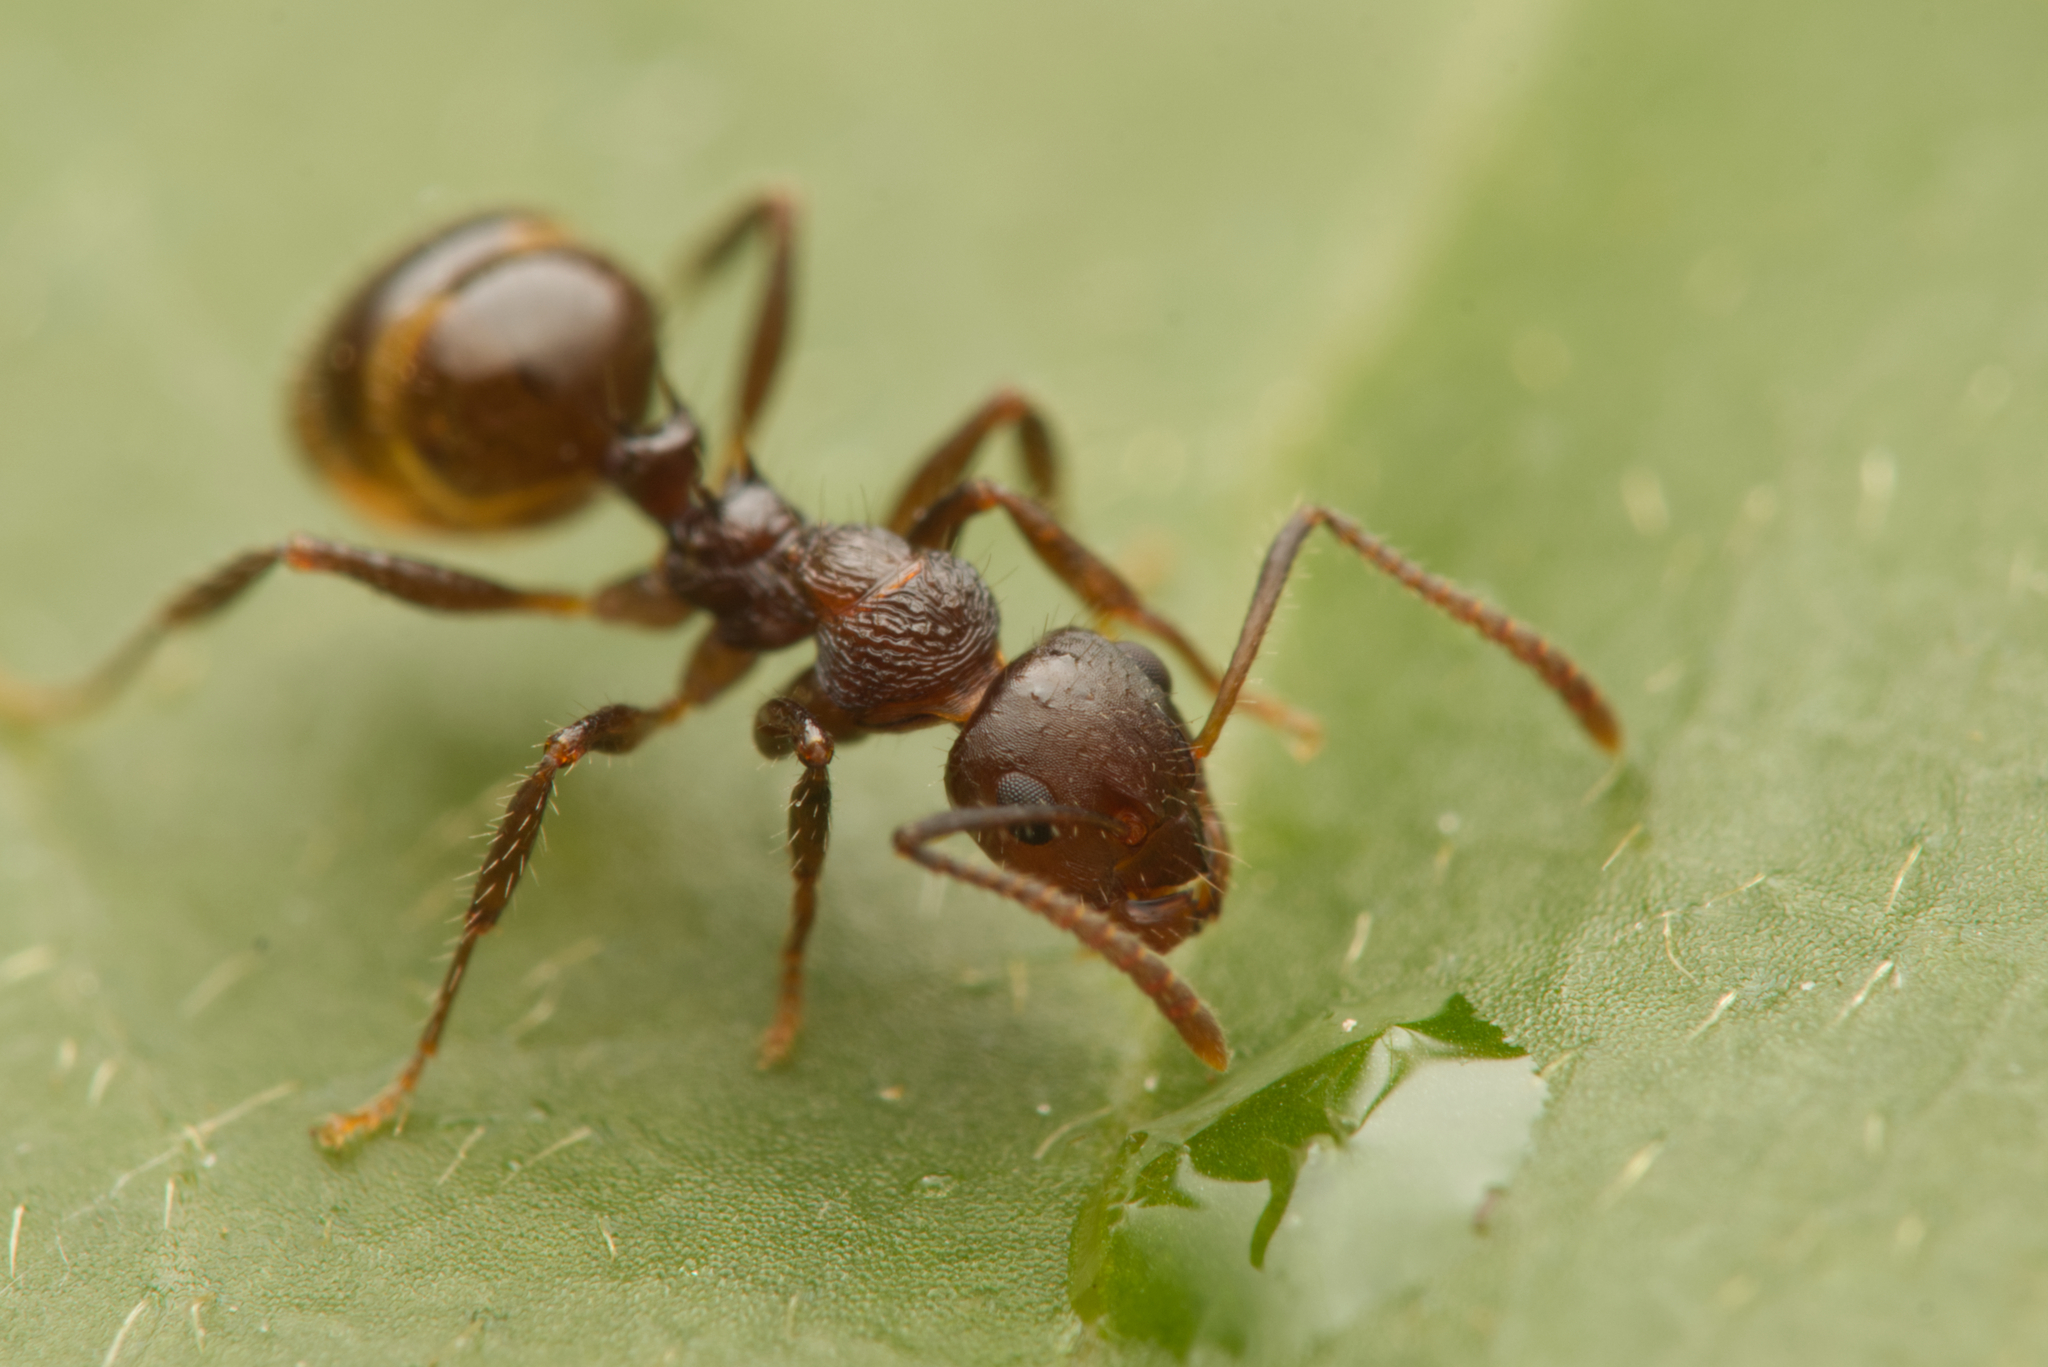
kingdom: Animalia
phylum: Arthropoda
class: Insecta
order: Hymenoptera
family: Formicidae
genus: Pseudonotoncus
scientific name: Pseudonotoncus hirsutus
